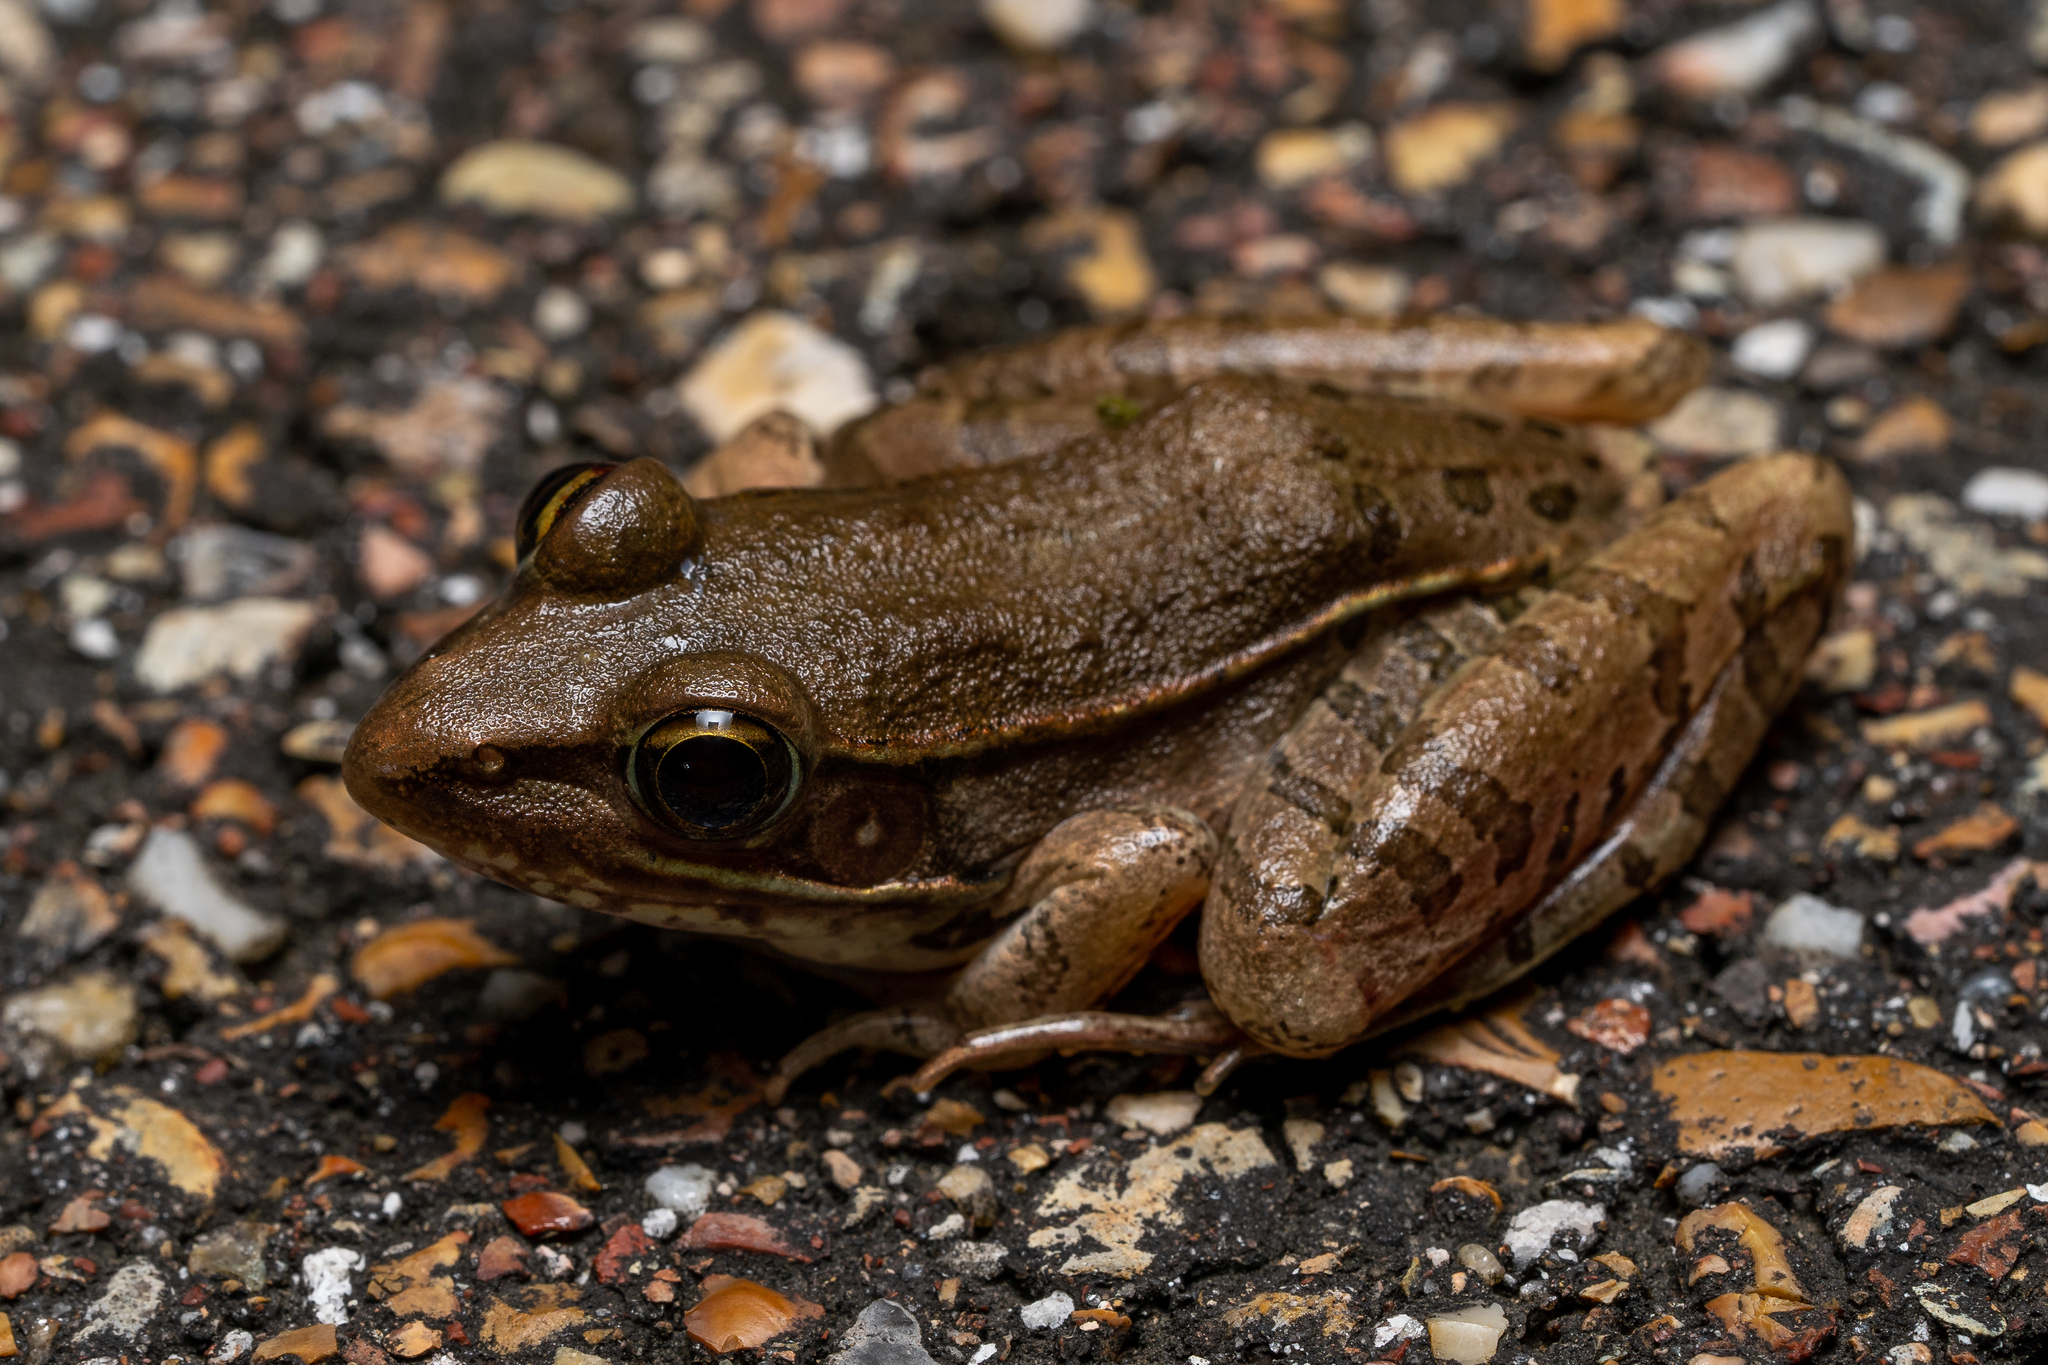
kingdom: Animalia
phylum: Chordata
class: Amphibia
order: Anura
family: Ranidae
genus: Lithobates
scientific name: Lithobates sphenocephalus
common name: Southern leopard frog
